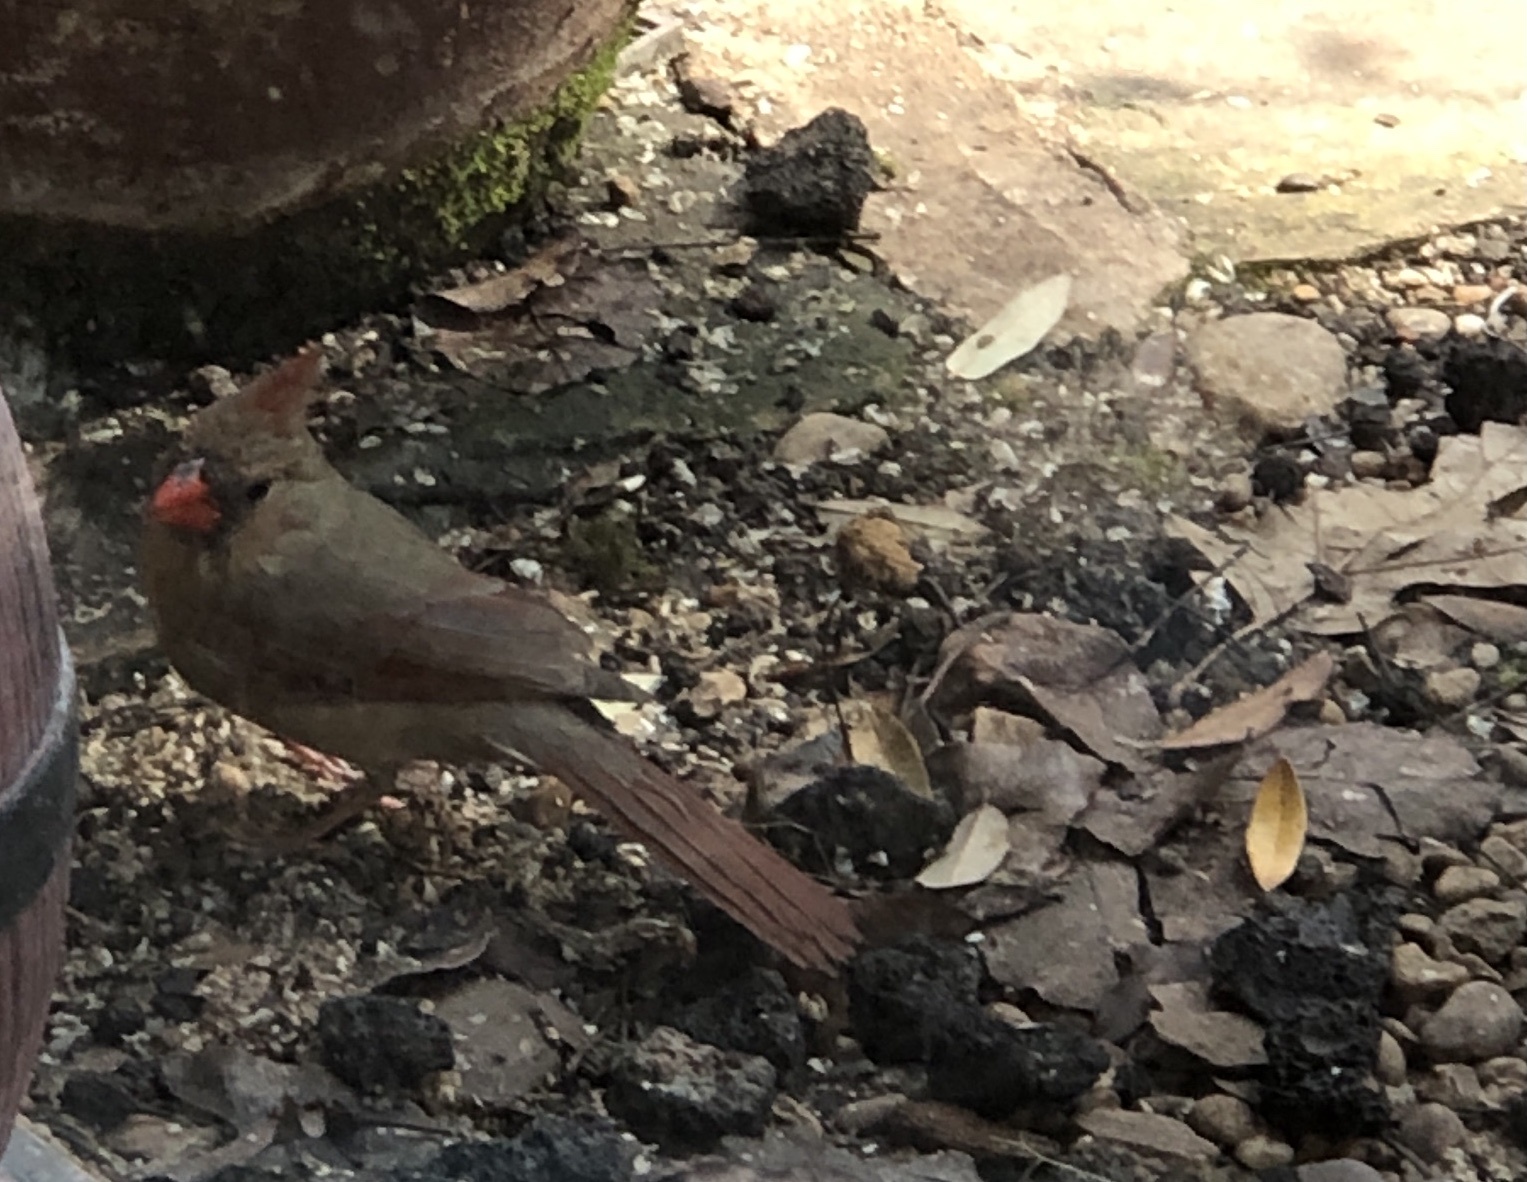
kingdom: Animalia
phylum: Chordata
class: Aves
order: Passeriformes
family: Cardinalidae
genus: Cardinalis
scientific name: Cardinalis cardinalis
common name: Northern cardinal
